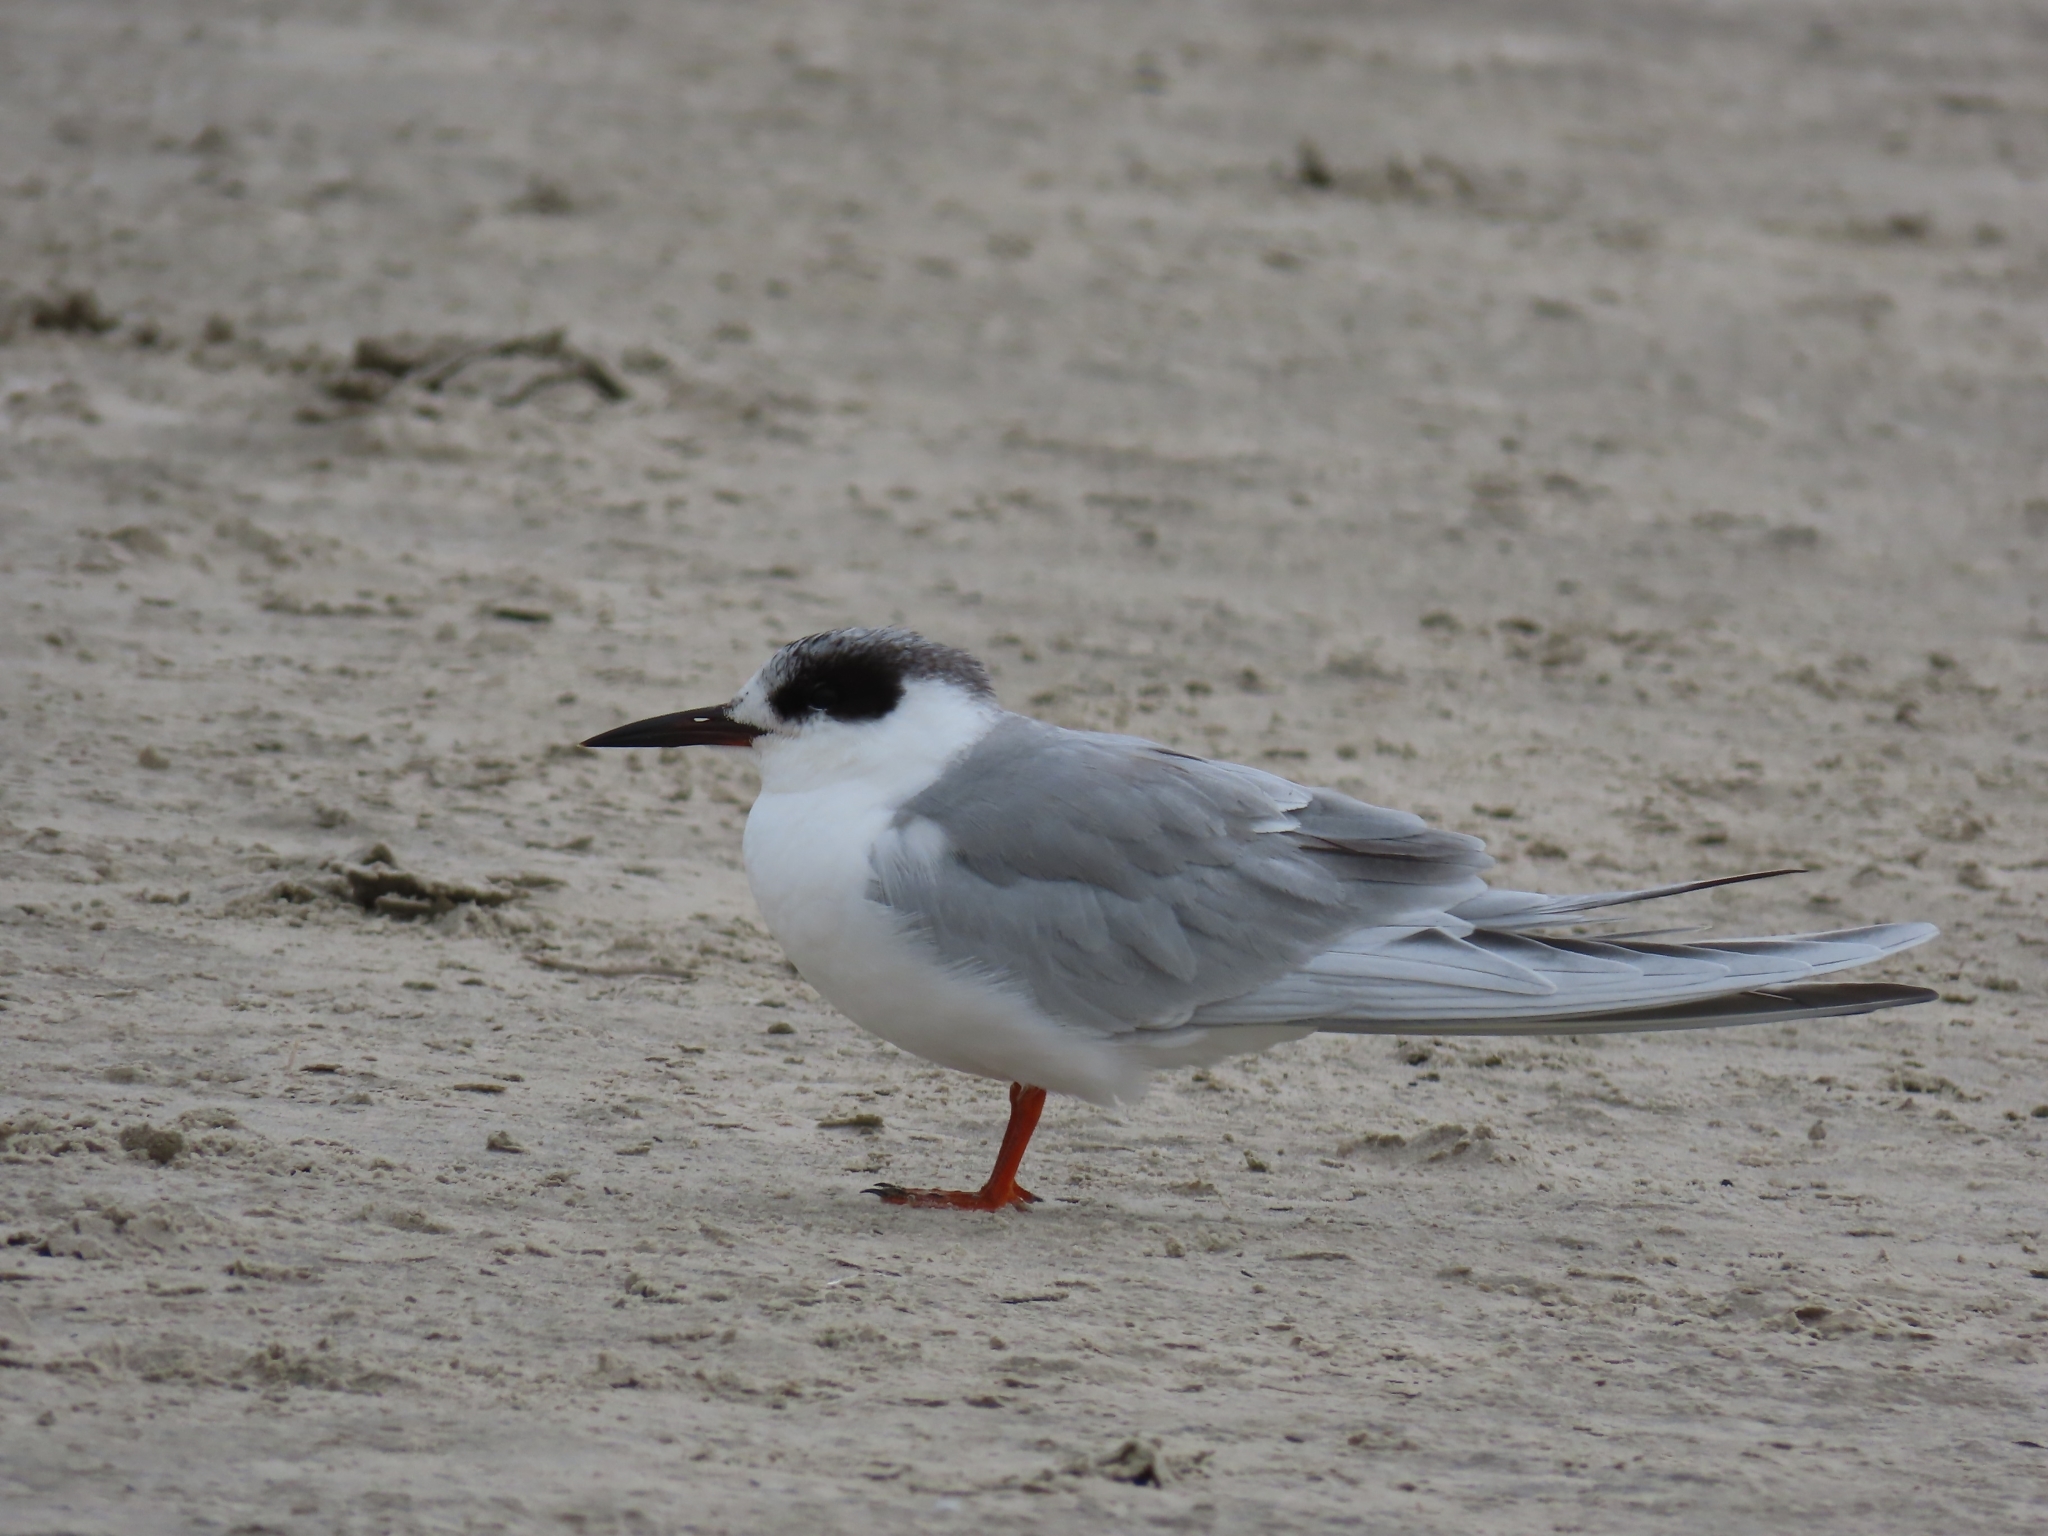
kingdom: Animalia
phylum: Chordata
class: Aves
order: Charadriiformes
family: Laridae
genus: Sterna
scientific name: Sterna forsteri
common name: Forster's tern
